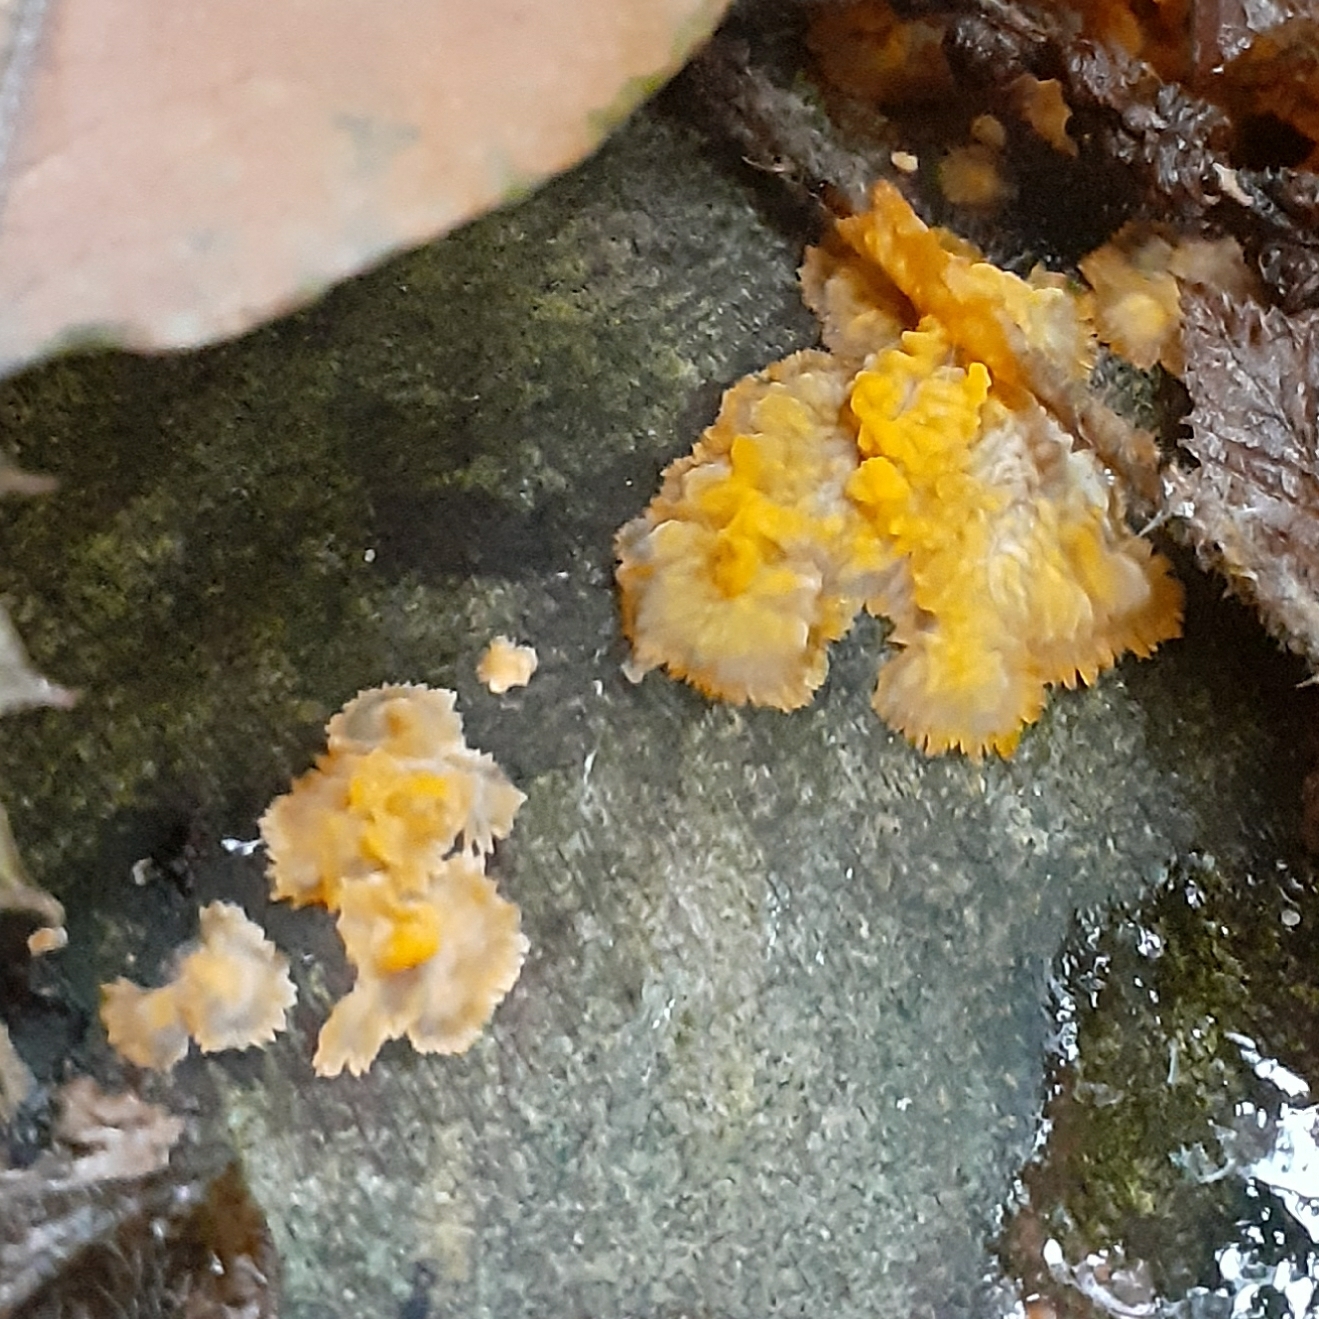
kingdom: Fungi
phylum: Basidiomycota
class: Agaricomycetes
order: Polyporales
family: Meruliaceae
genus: Phlebia
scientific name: Phlebia radiata
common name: Wrinkled crust
